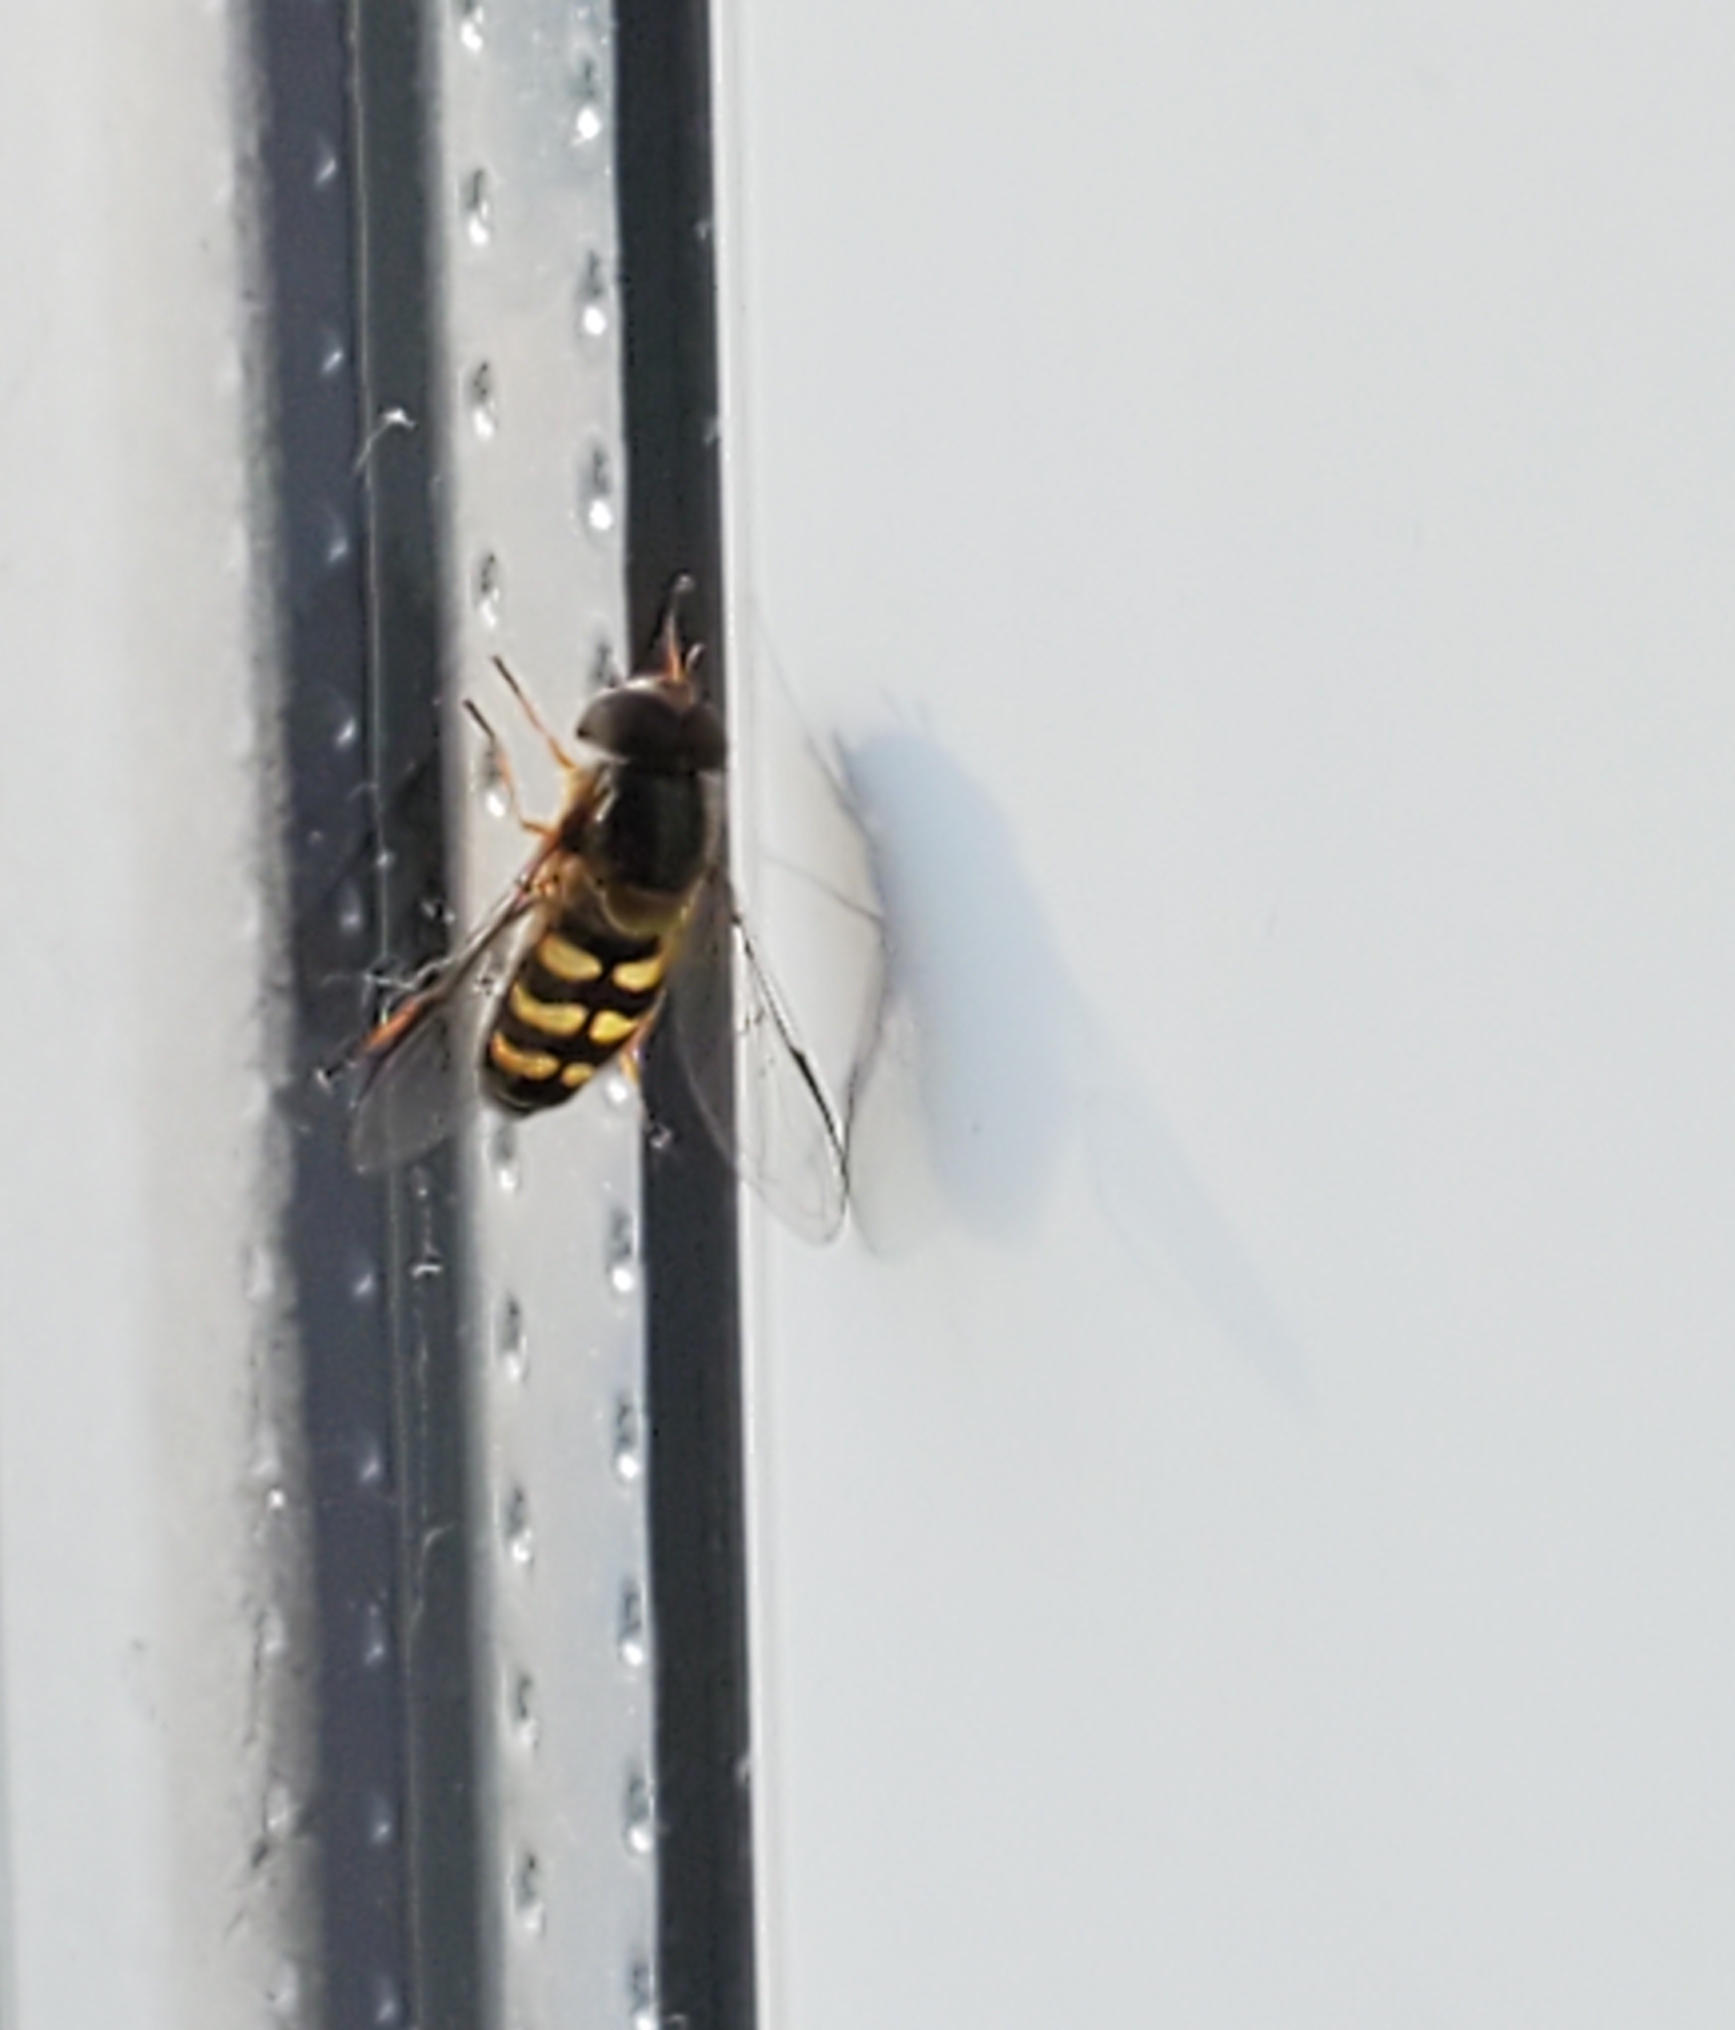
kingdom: Animalia
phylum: Arthropoda
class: Insecta
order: Diptera
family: Syrphidae
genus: Lapposyrphus
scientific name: Lapposyrphus lapponicus
